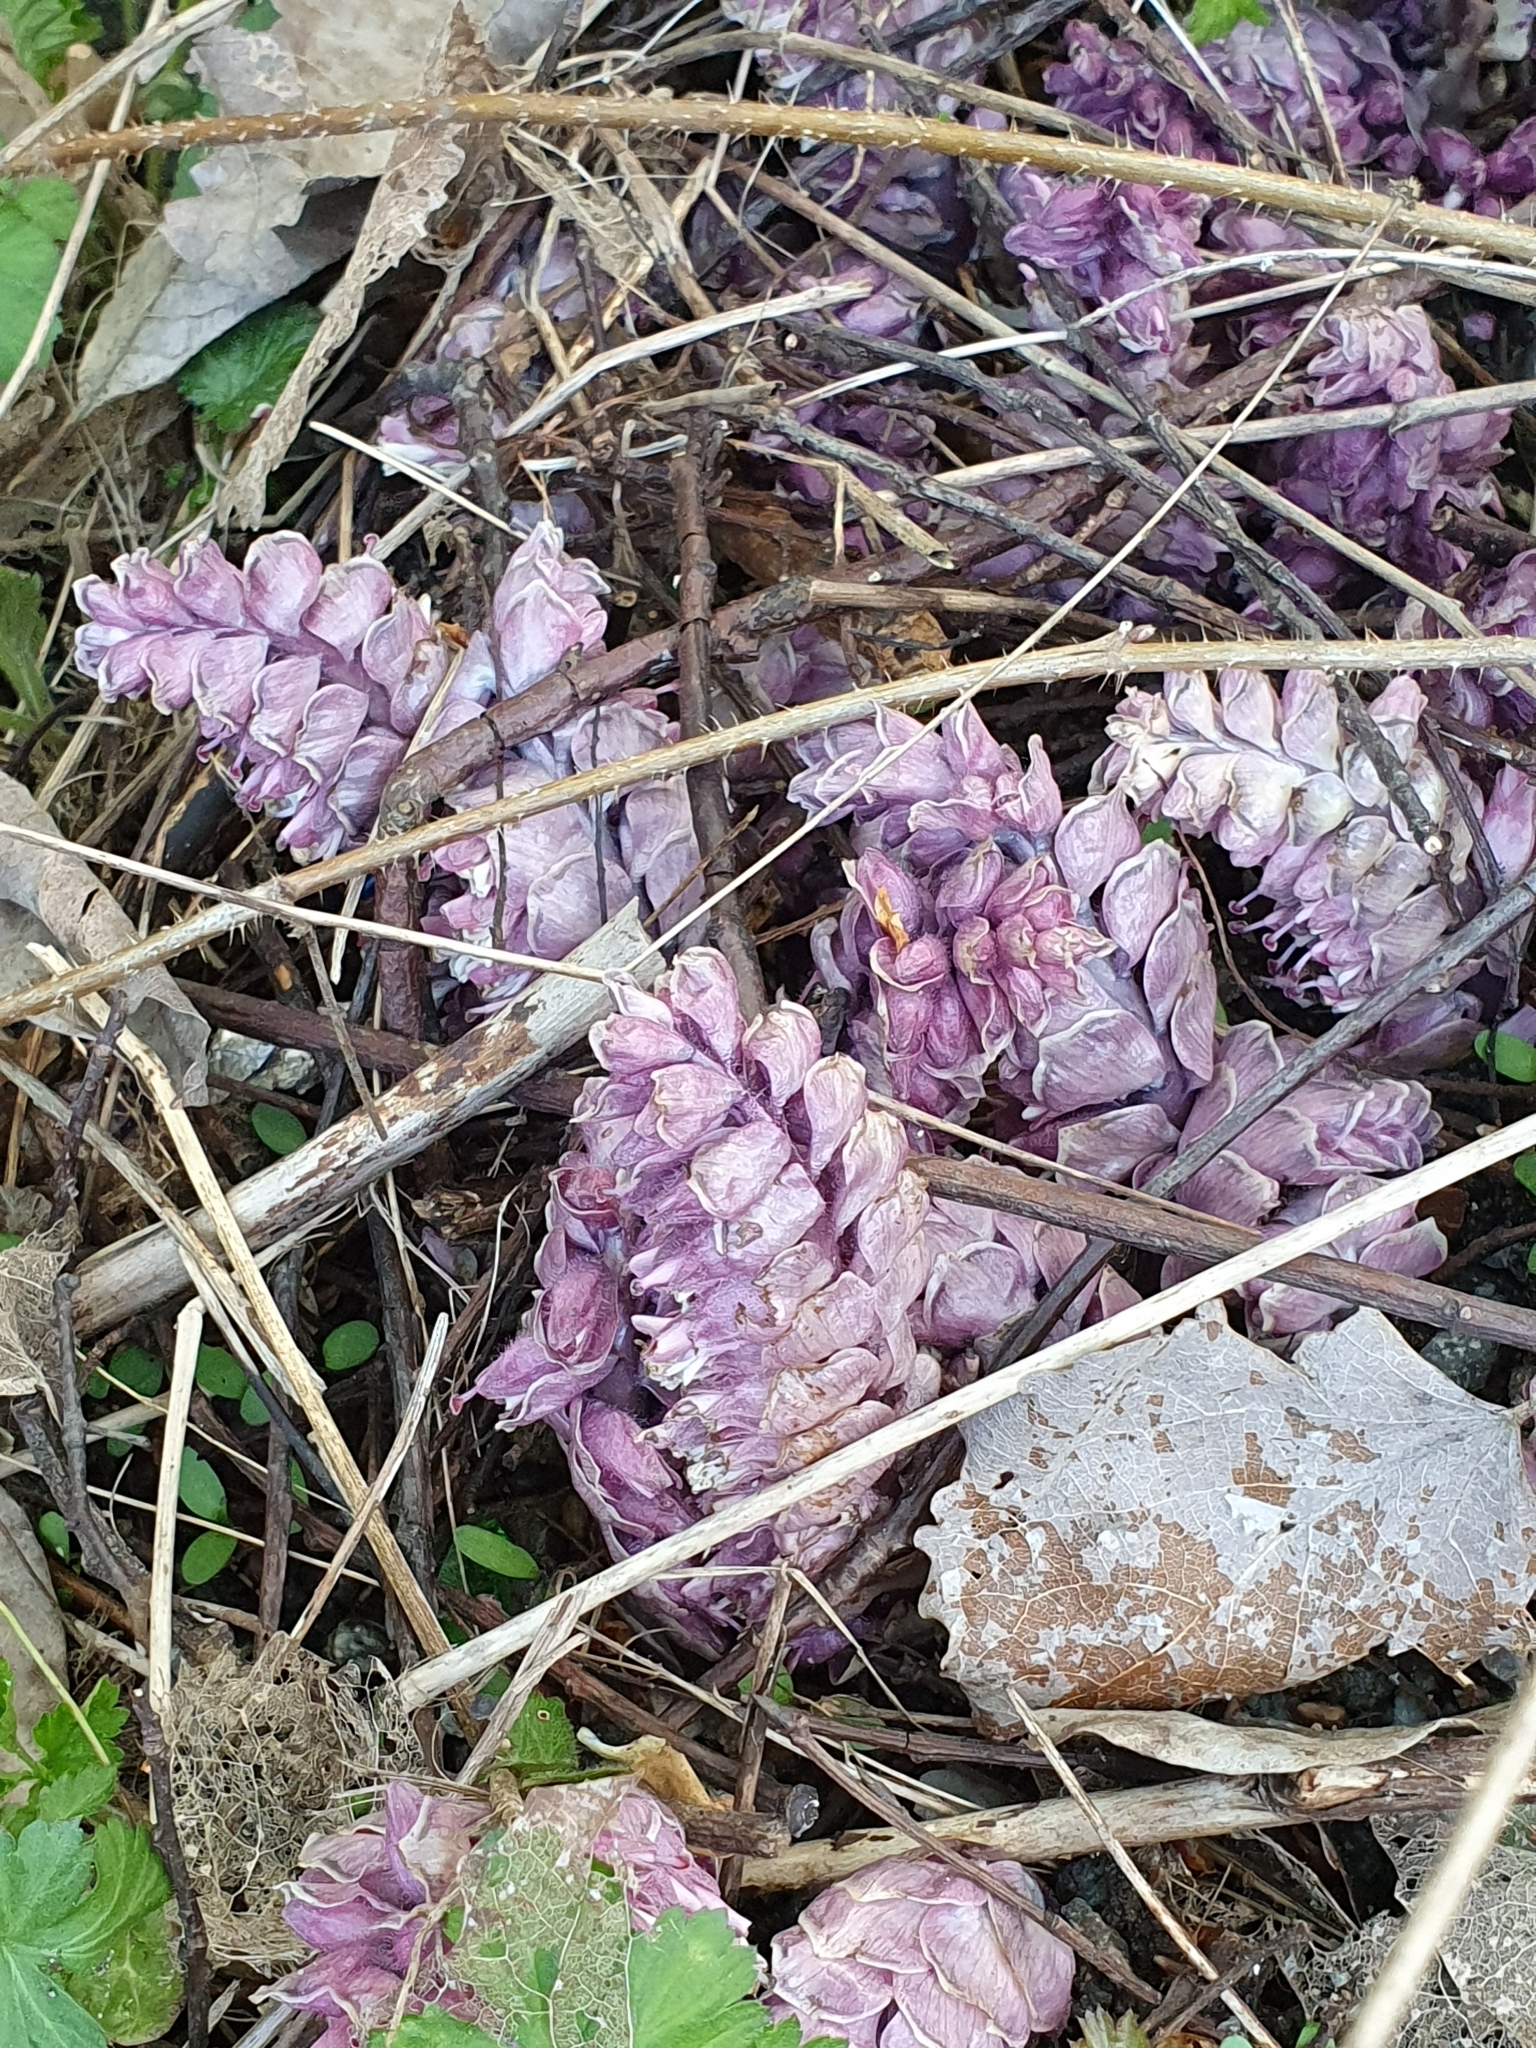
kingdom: Plantae
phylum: Tracheophyta
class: Magnoliopsida
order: Lamiales
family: Orobanchaceae
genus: Lathraea
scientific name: Lathraea squamaria
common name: Toothwort
